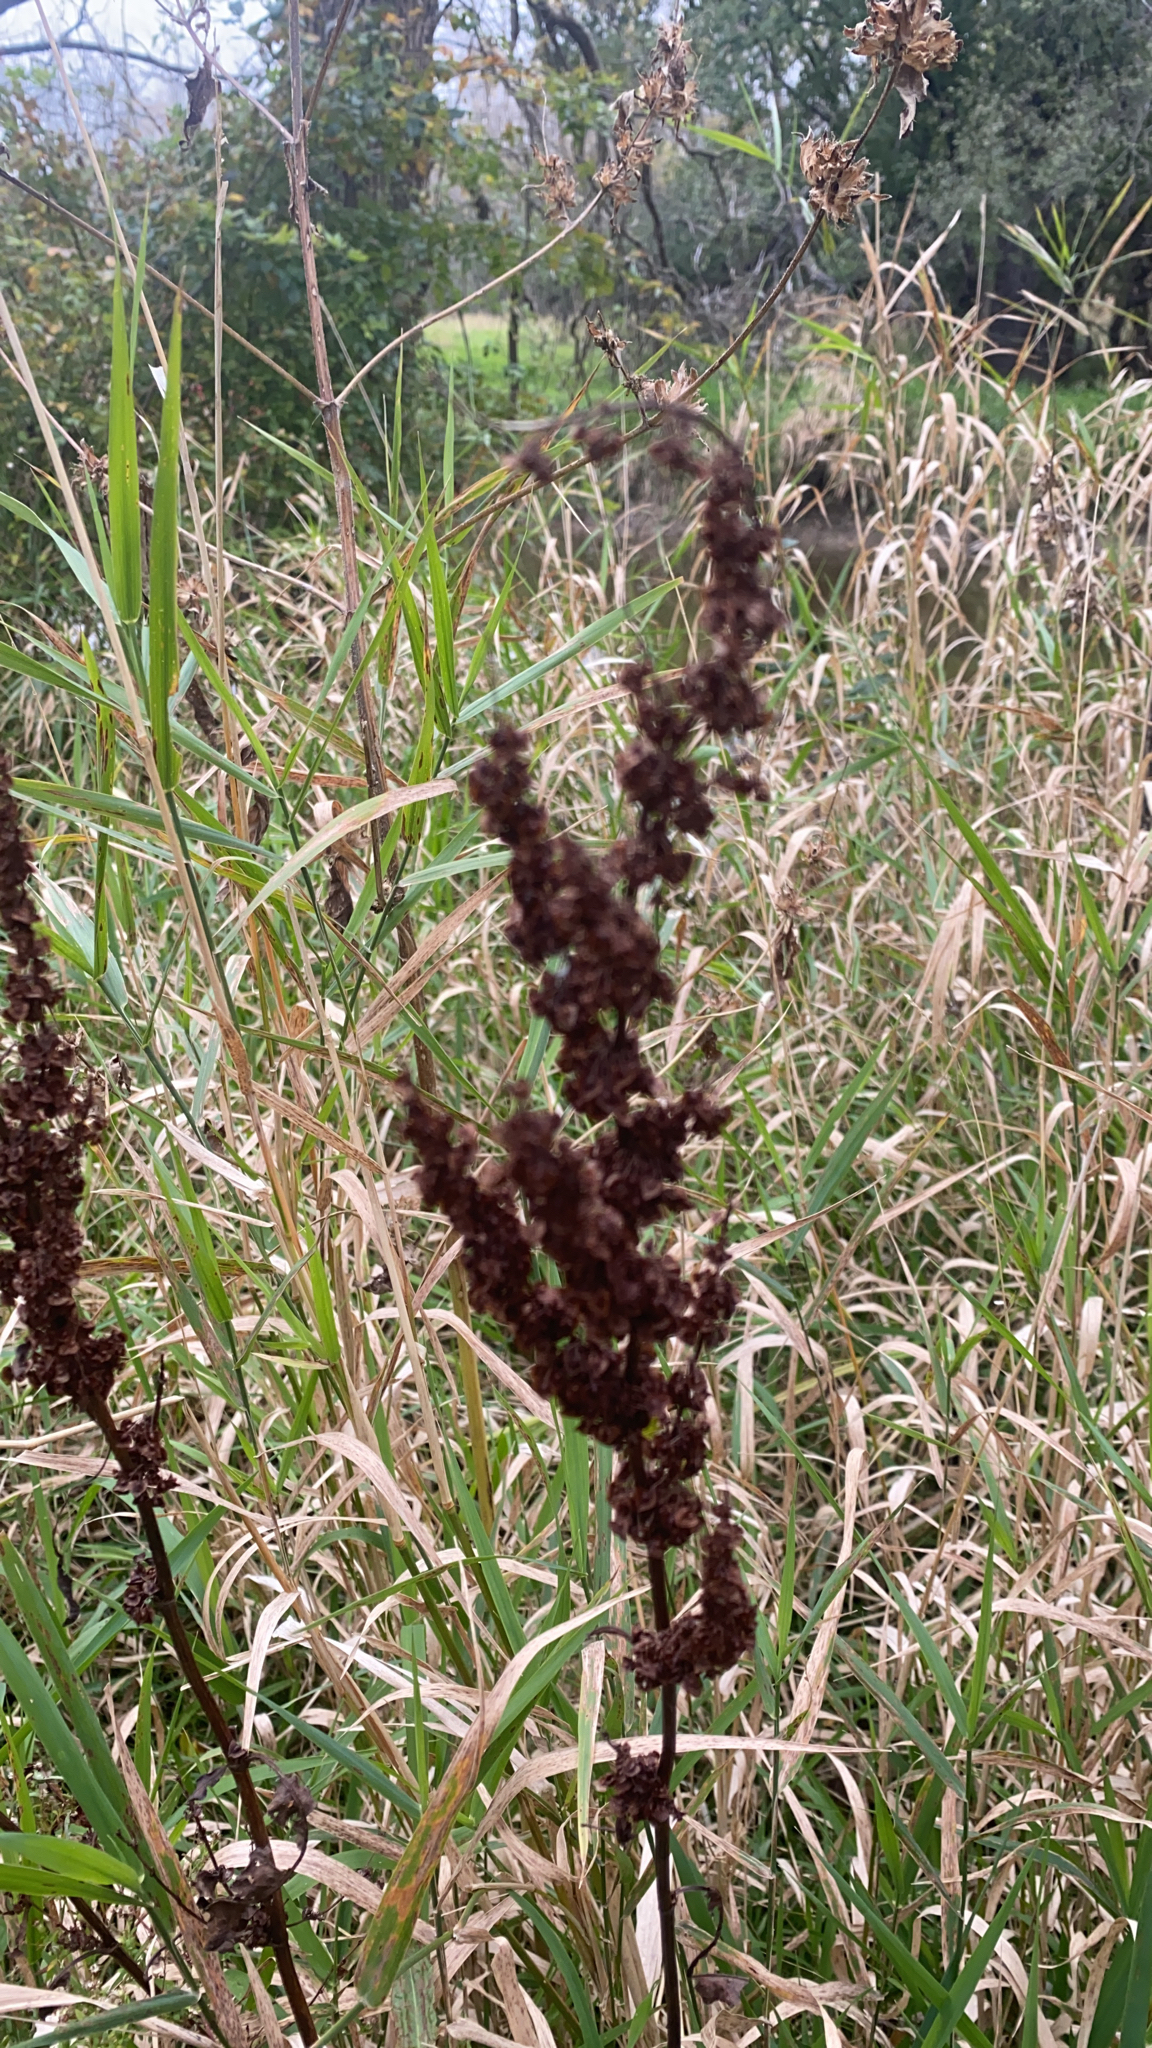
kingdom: Plantae
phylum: Tracheophyta
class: Magnoliopsida
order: Caryophyllales
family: Polygonaceae
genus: Rumex
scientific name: Rumex crispus
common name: Curled dock
